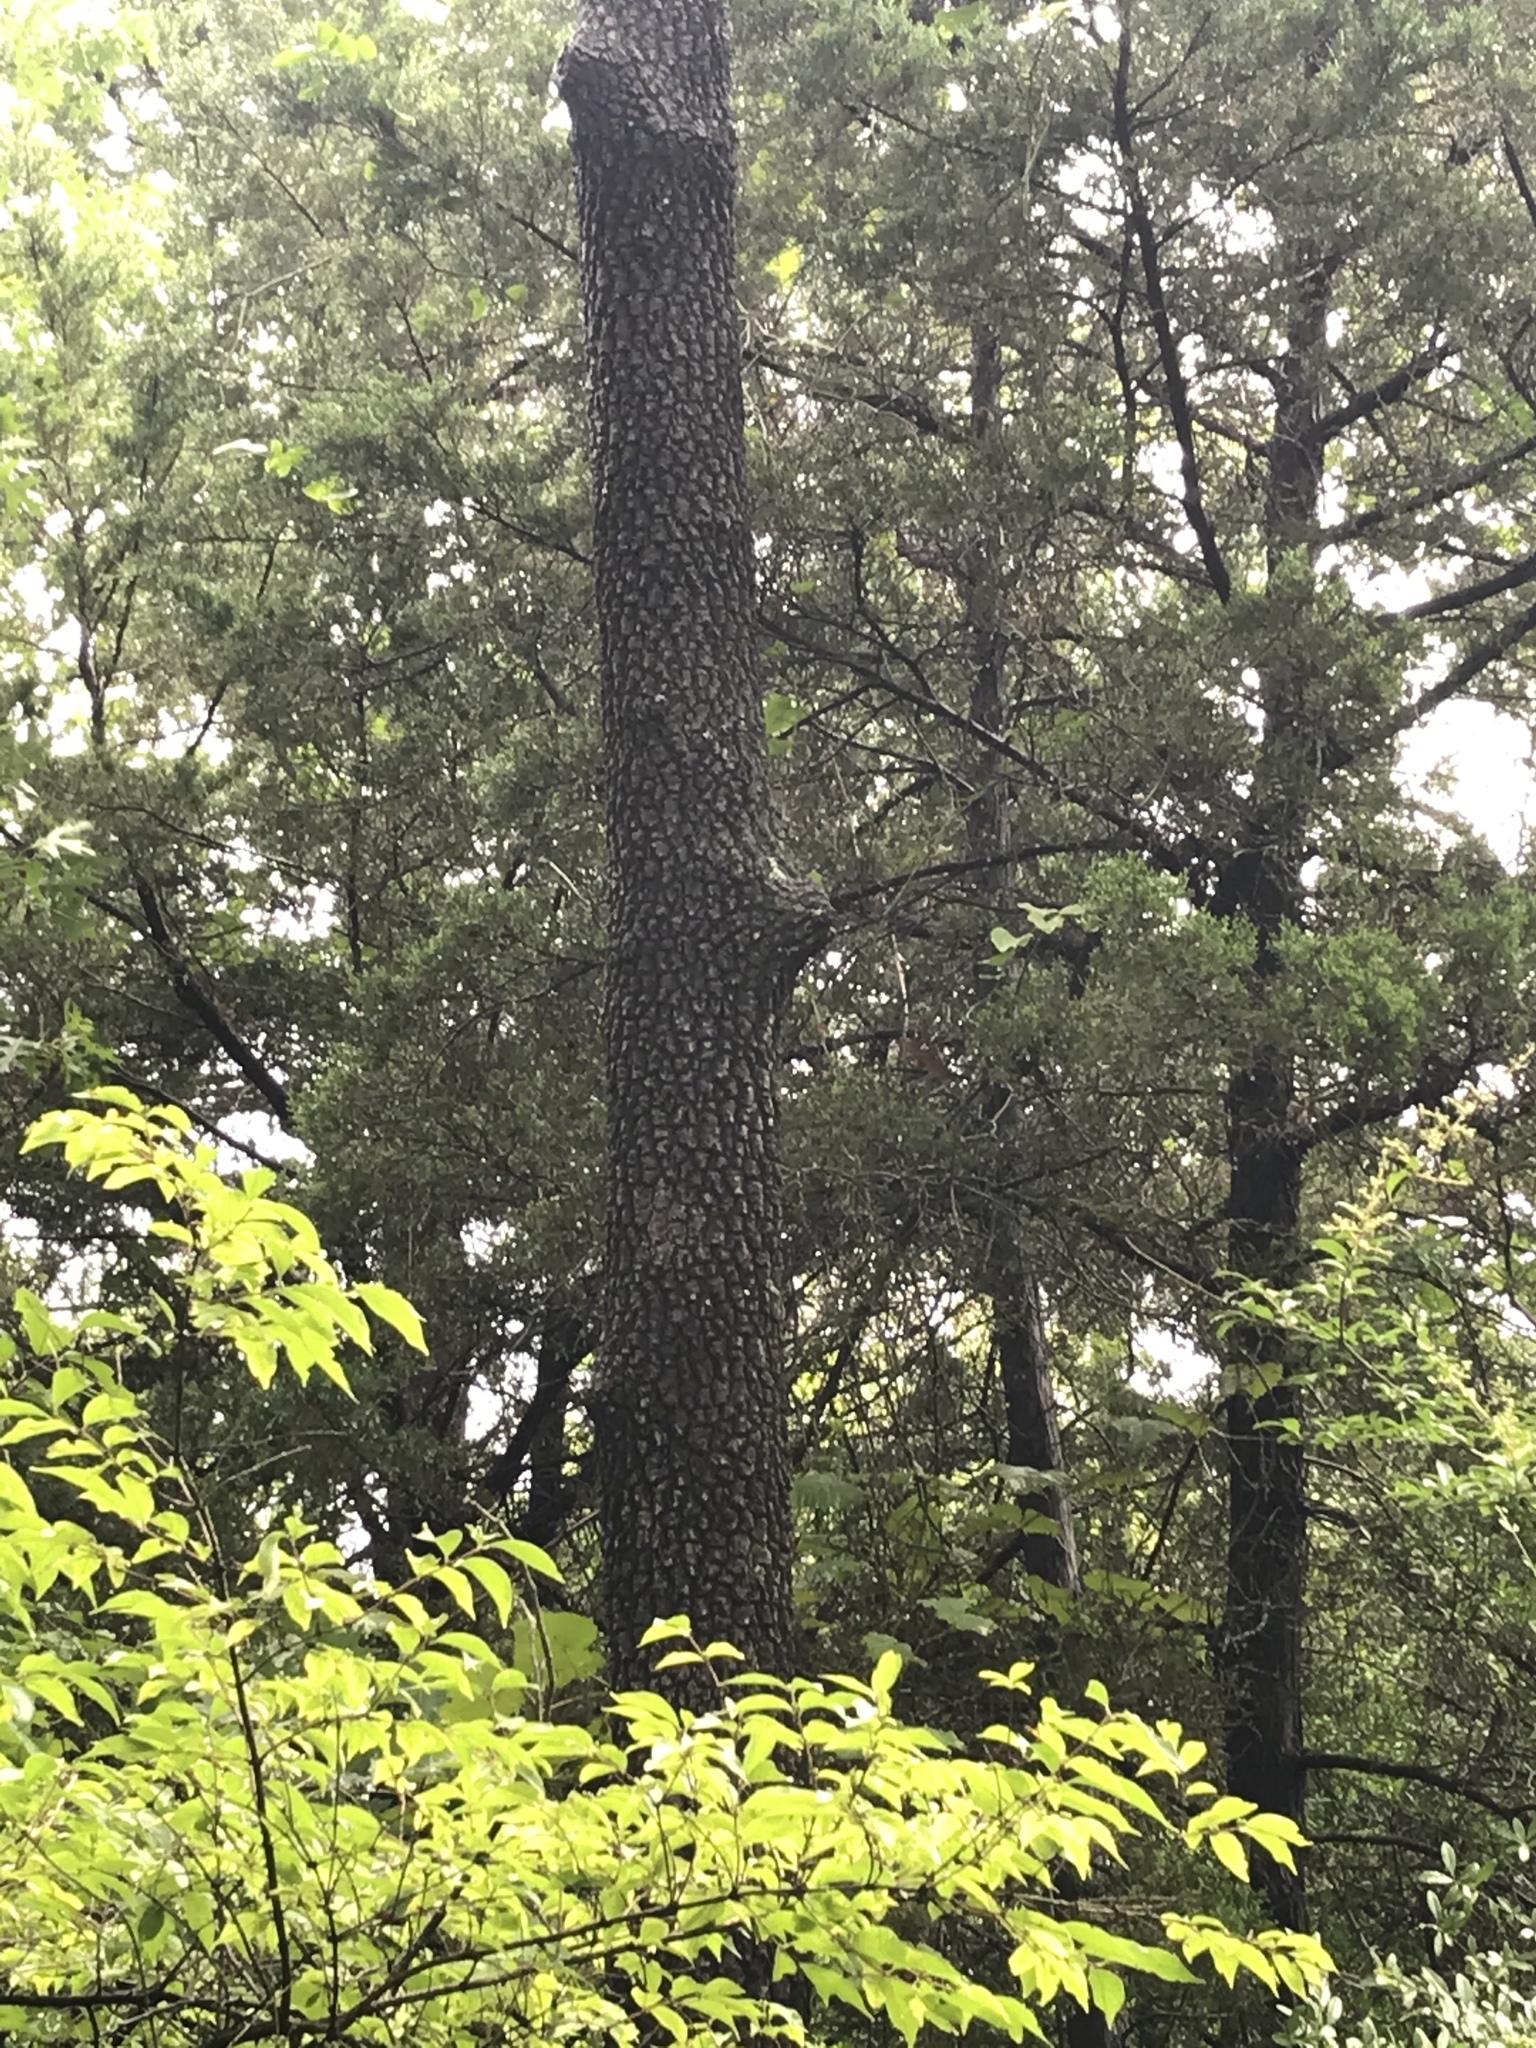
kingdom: Plantae
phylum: Tracheophyta
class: Magnoliopsida
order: Ericales
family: Ebenaceae
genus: Diospyros
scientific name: Diospyros virginiana
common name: Persimmon
